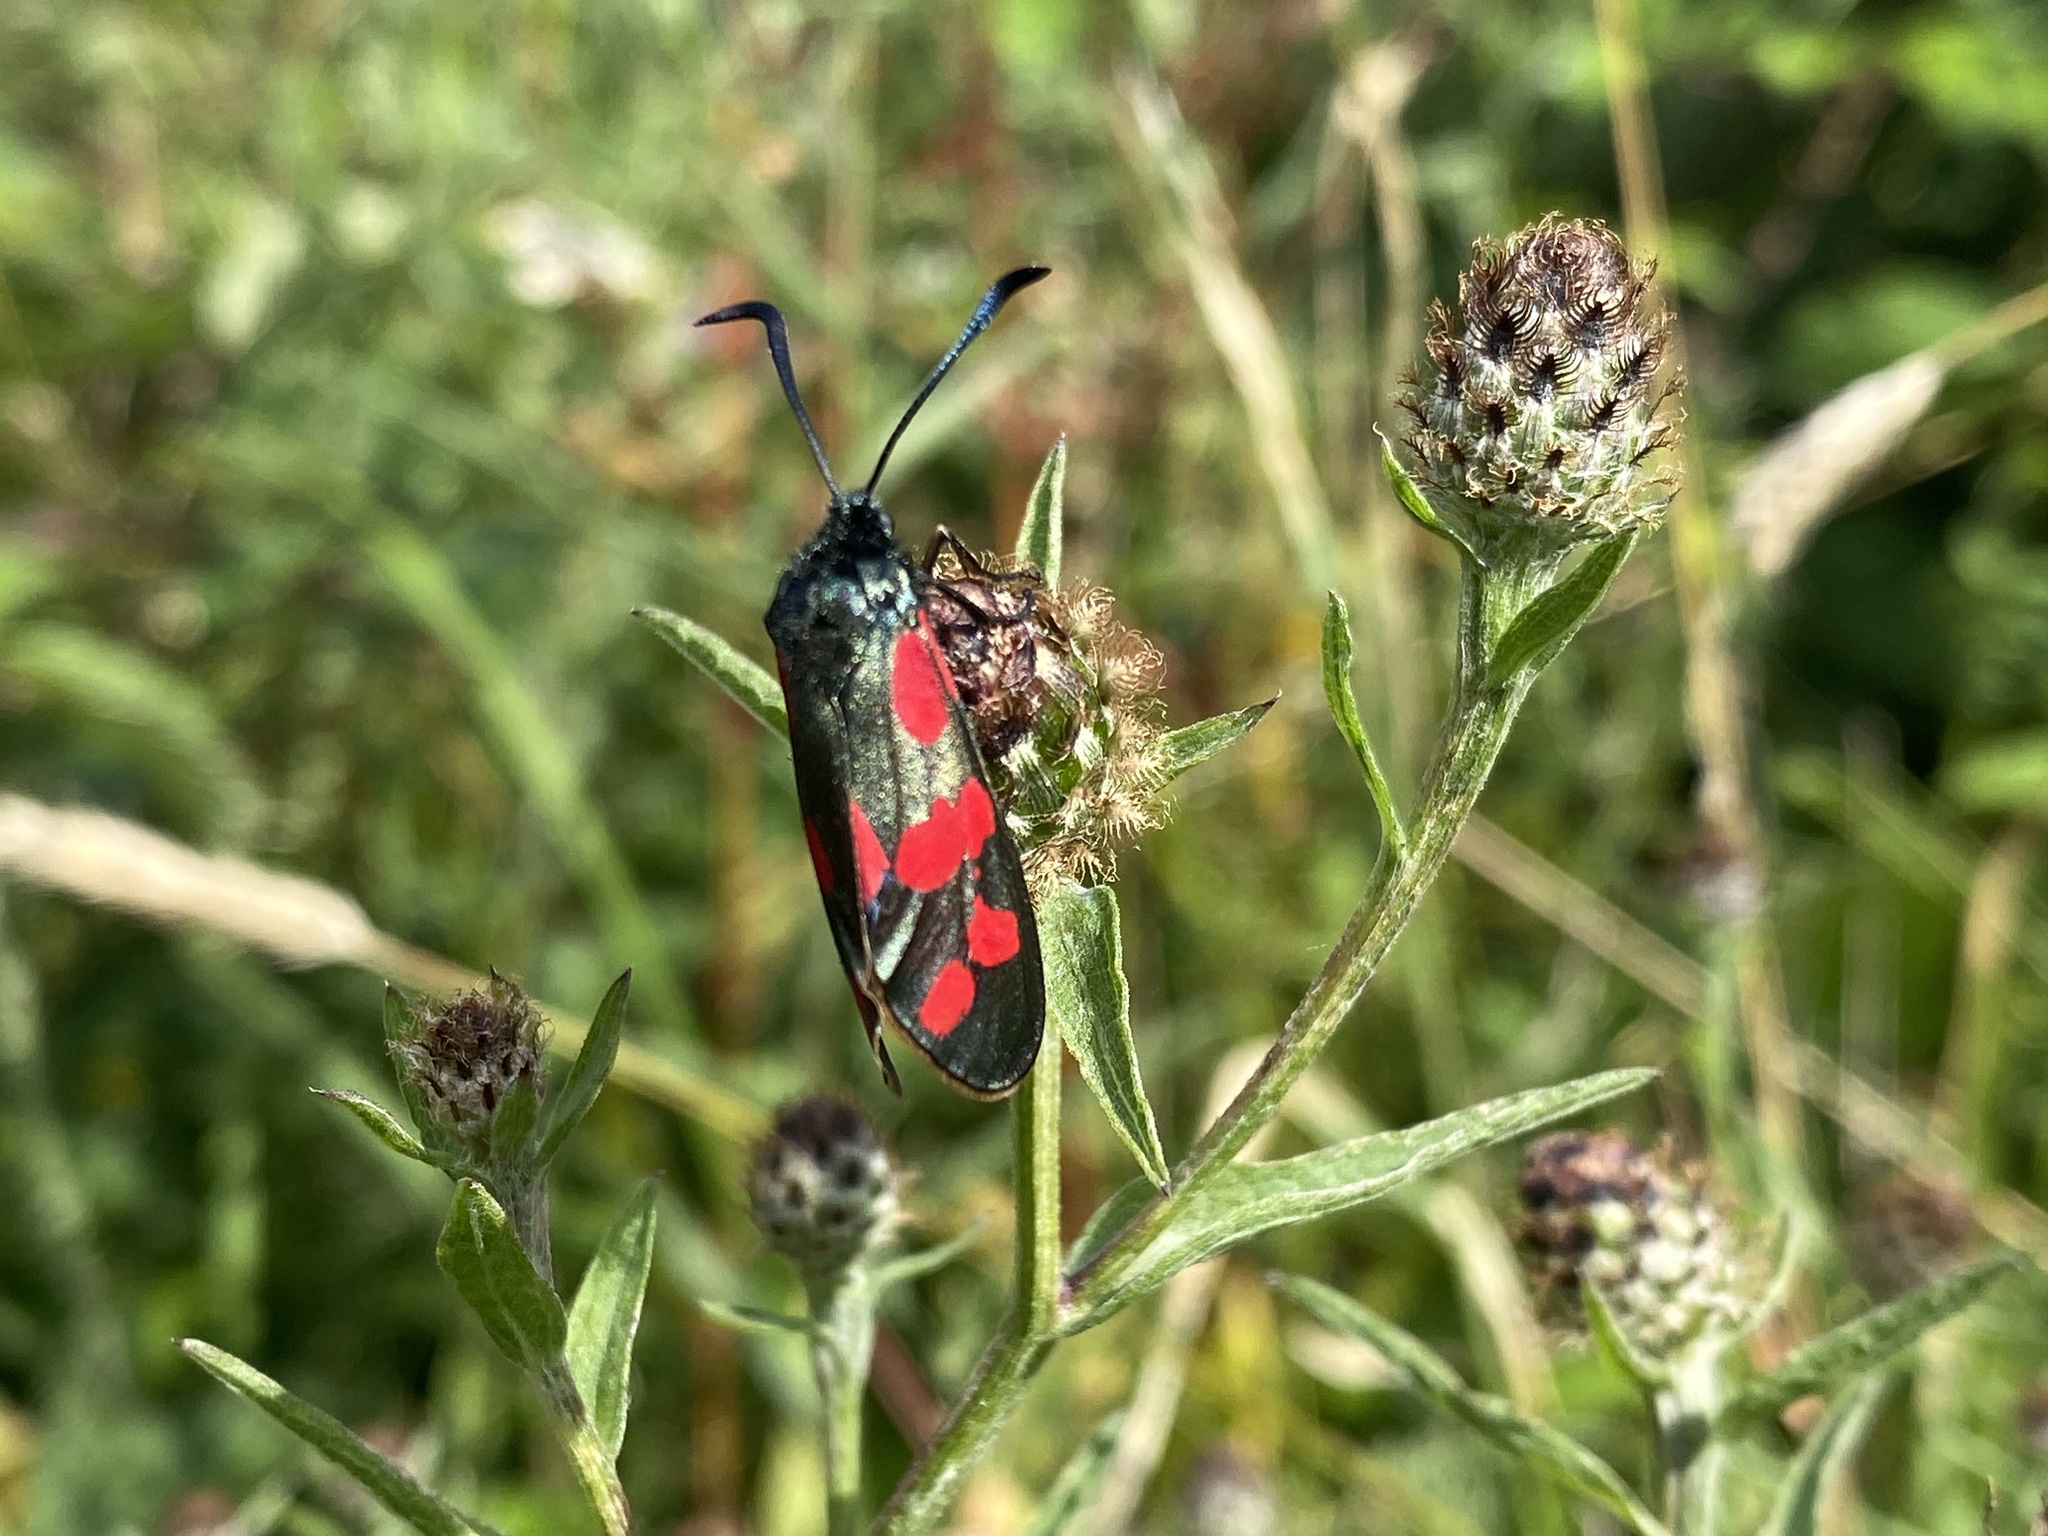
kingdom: Animalia
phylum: Arthropoda
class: Insecta
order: Lepidoptera
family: Zygaenidae
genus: Zygaena
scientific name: Zygaena filipendulae
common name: Six-spot burnet
